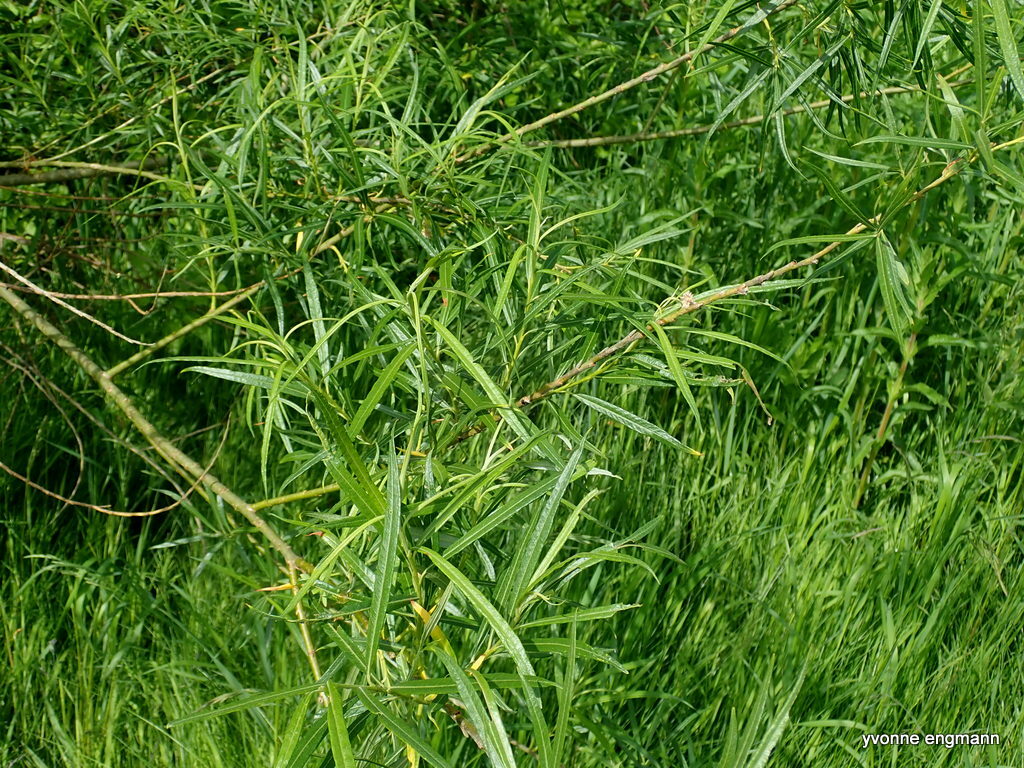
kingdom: Plantae
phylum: Tracheophyta
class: Magnoliopsida
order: Malpighiales
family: Salicaceae
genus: Salix
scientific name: Salix viminalis
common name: Osier
